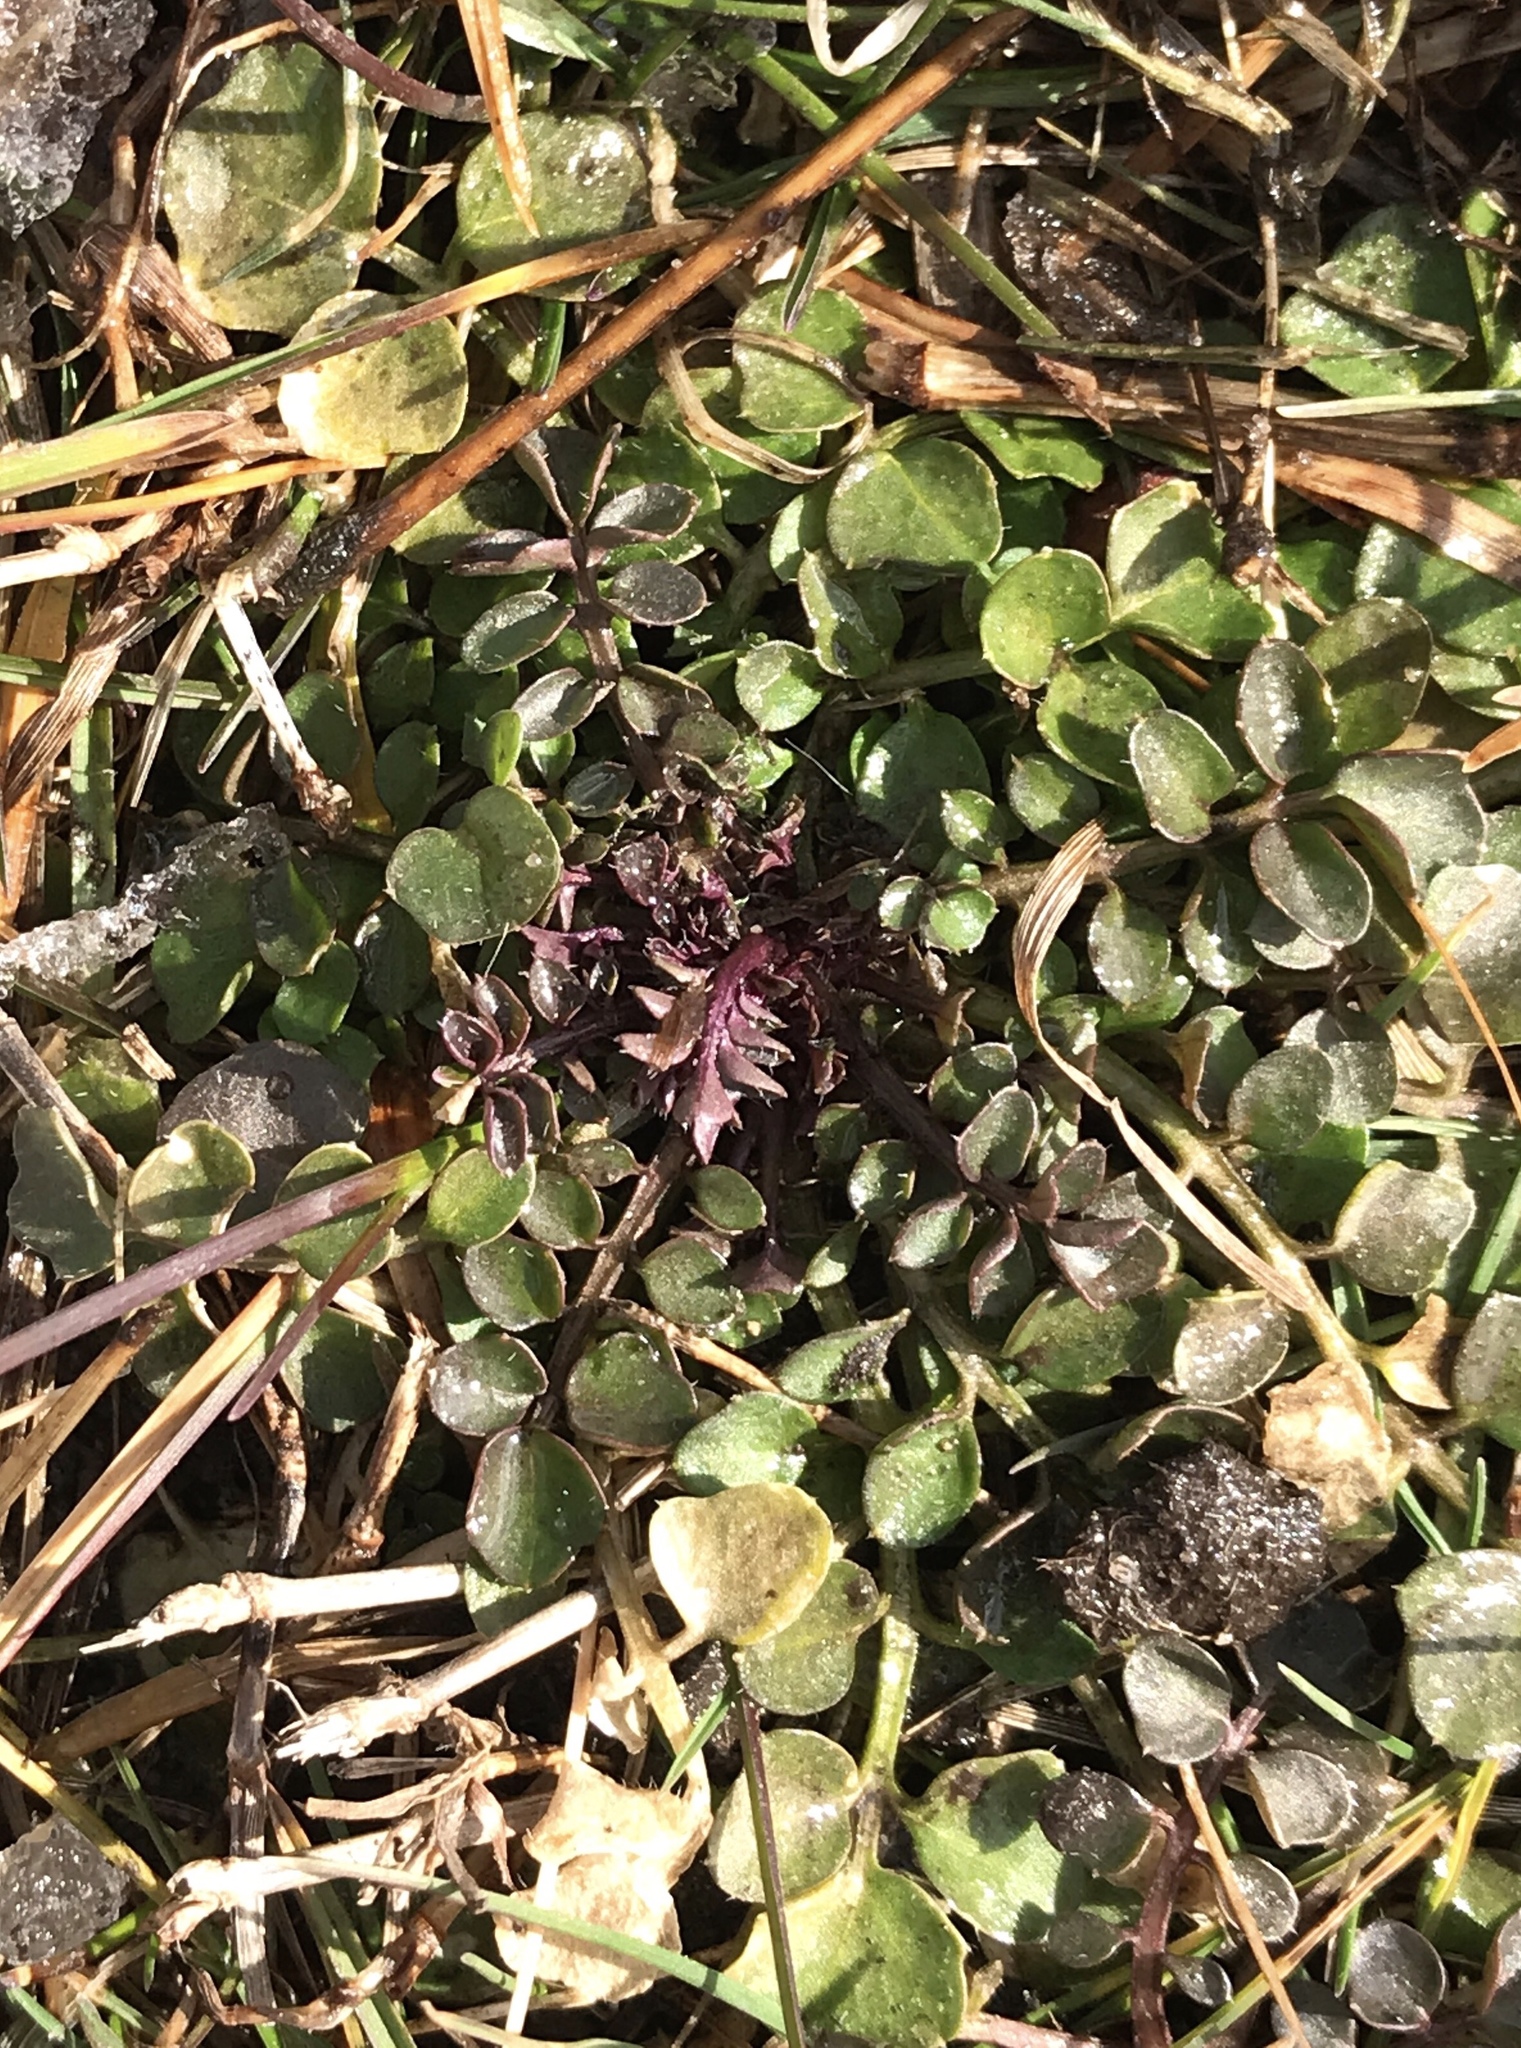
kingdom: Plantae
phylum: Tracheophyta
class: Magnoliopsida
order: Brassicales
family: Brassicaceae
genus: Cardamine
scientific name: Cardamine hirsuta
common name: Hairy bittercress
